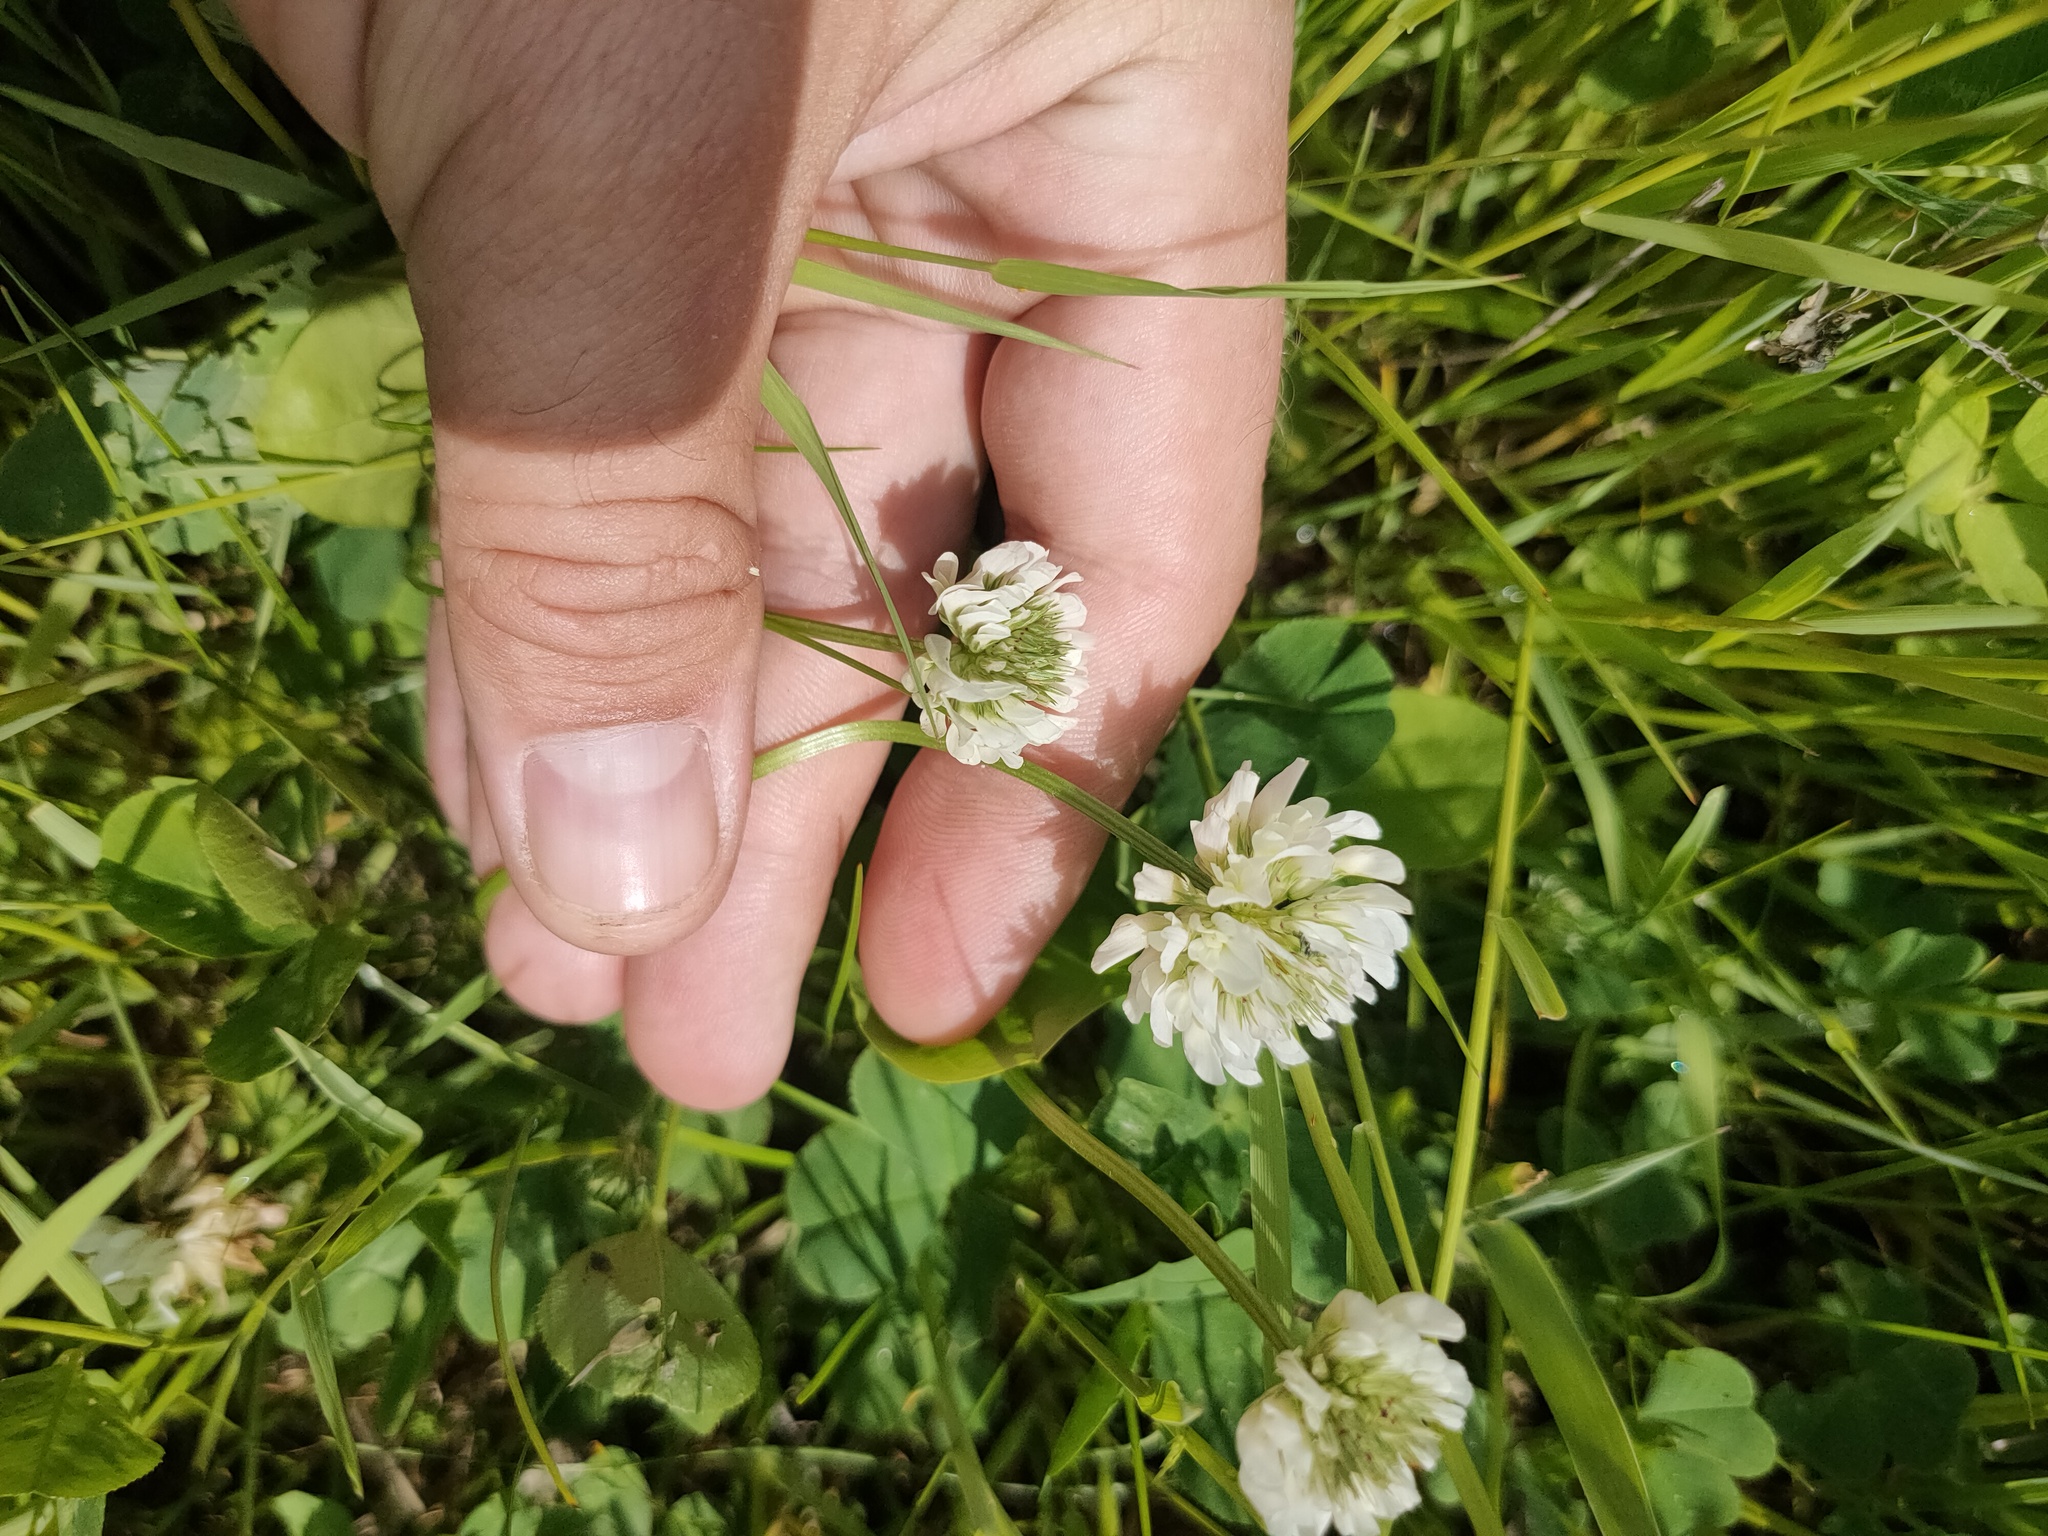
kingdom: Plantae
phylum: Tracheophyta
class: Magnoliopsida
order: Fabales
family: Fabaceae
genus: Trifolium
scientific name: Trifolium repens
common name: White clover
